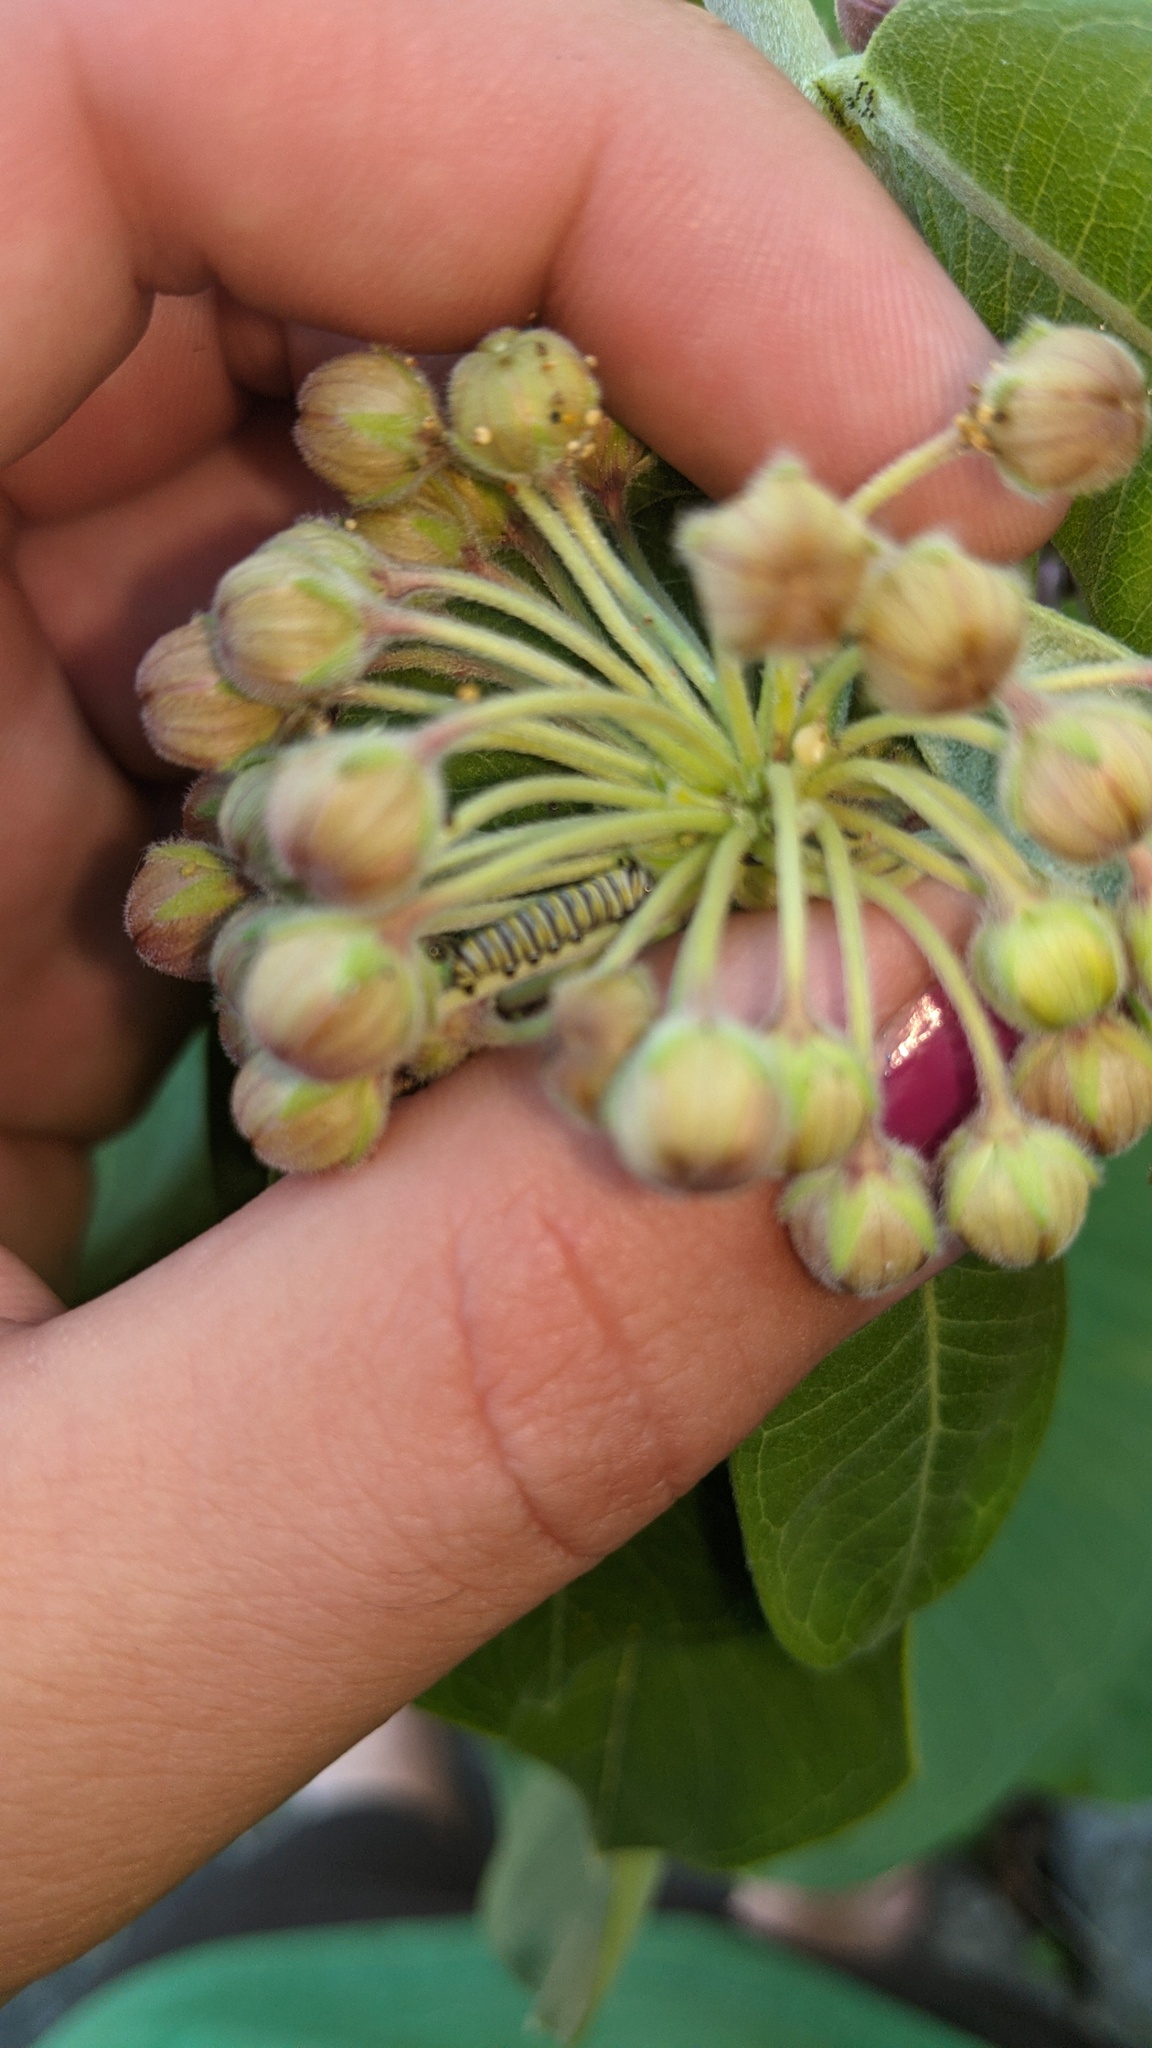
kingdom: Animalia
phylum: Arthropoda
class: Insecta
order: Lepidoptera
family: Nymphalidae
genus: Danaus
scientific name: Danaus plexippus
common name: Monarch
